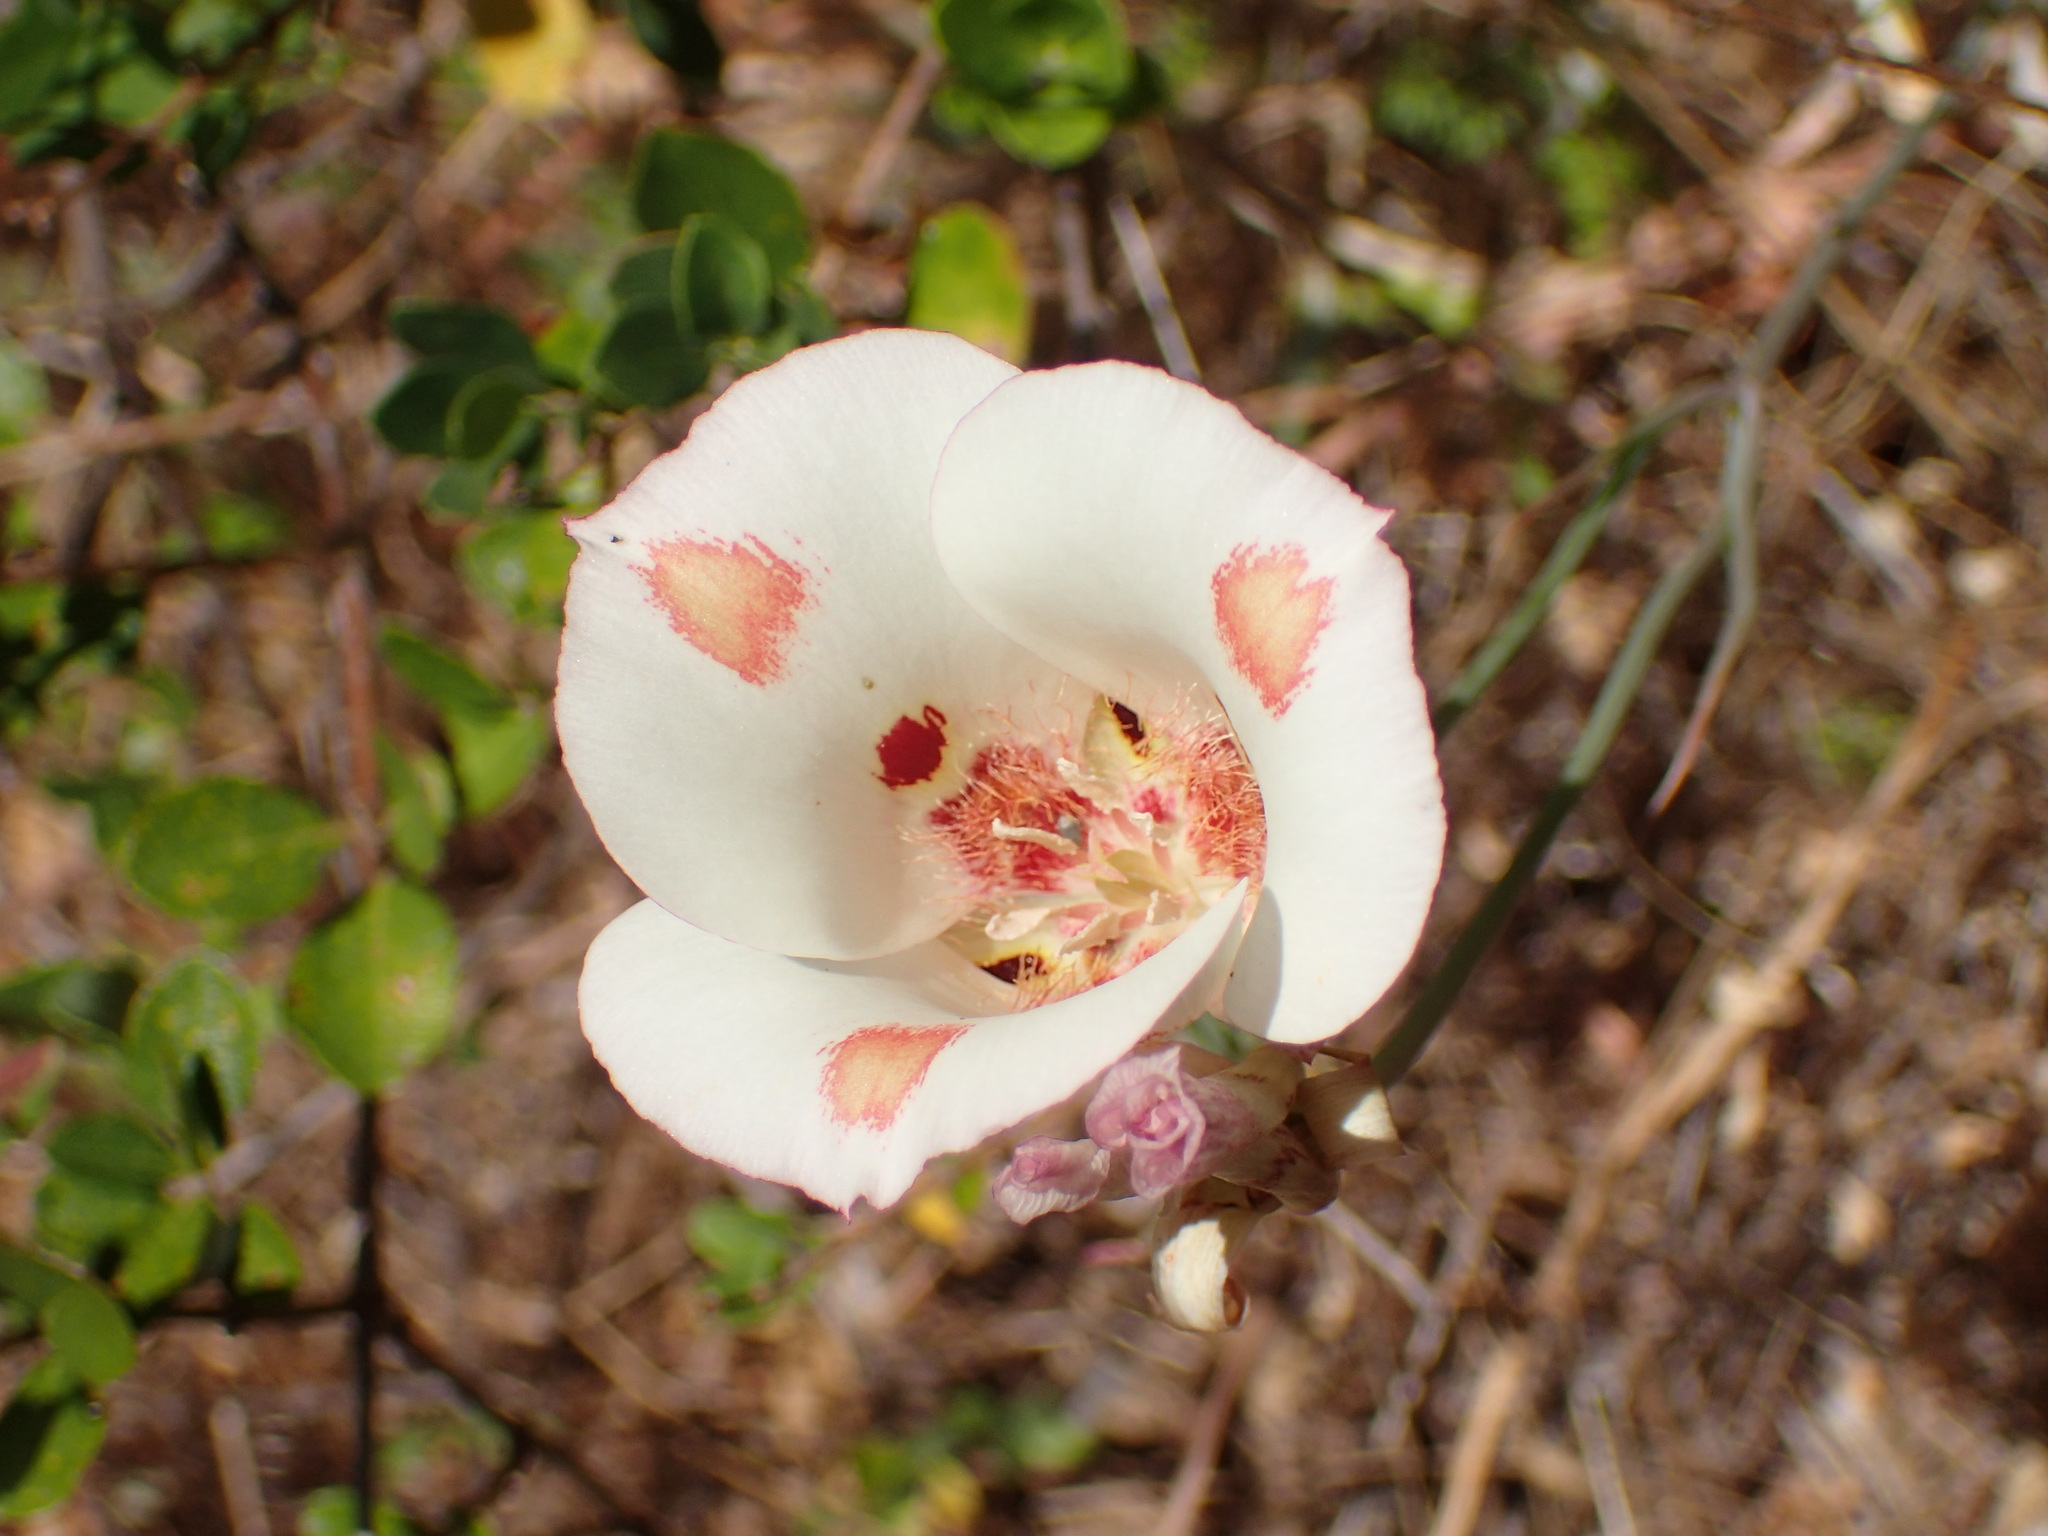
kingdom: Plantae
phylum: Tracheophyta
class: Liliopsida
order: Liliales
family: Liliaceae
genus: Calochortus
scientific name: Calochortus venustus
